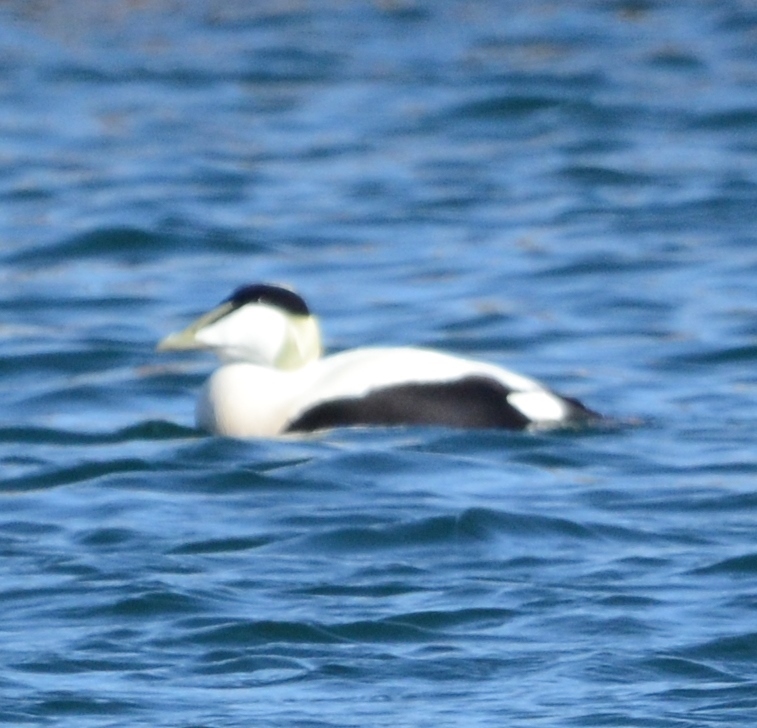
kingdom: Animalia
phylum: Chordata
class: Aves
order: Anseriformes
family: Anatidae
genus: Somateria
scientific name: Somateria mollissima
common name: Common eider
